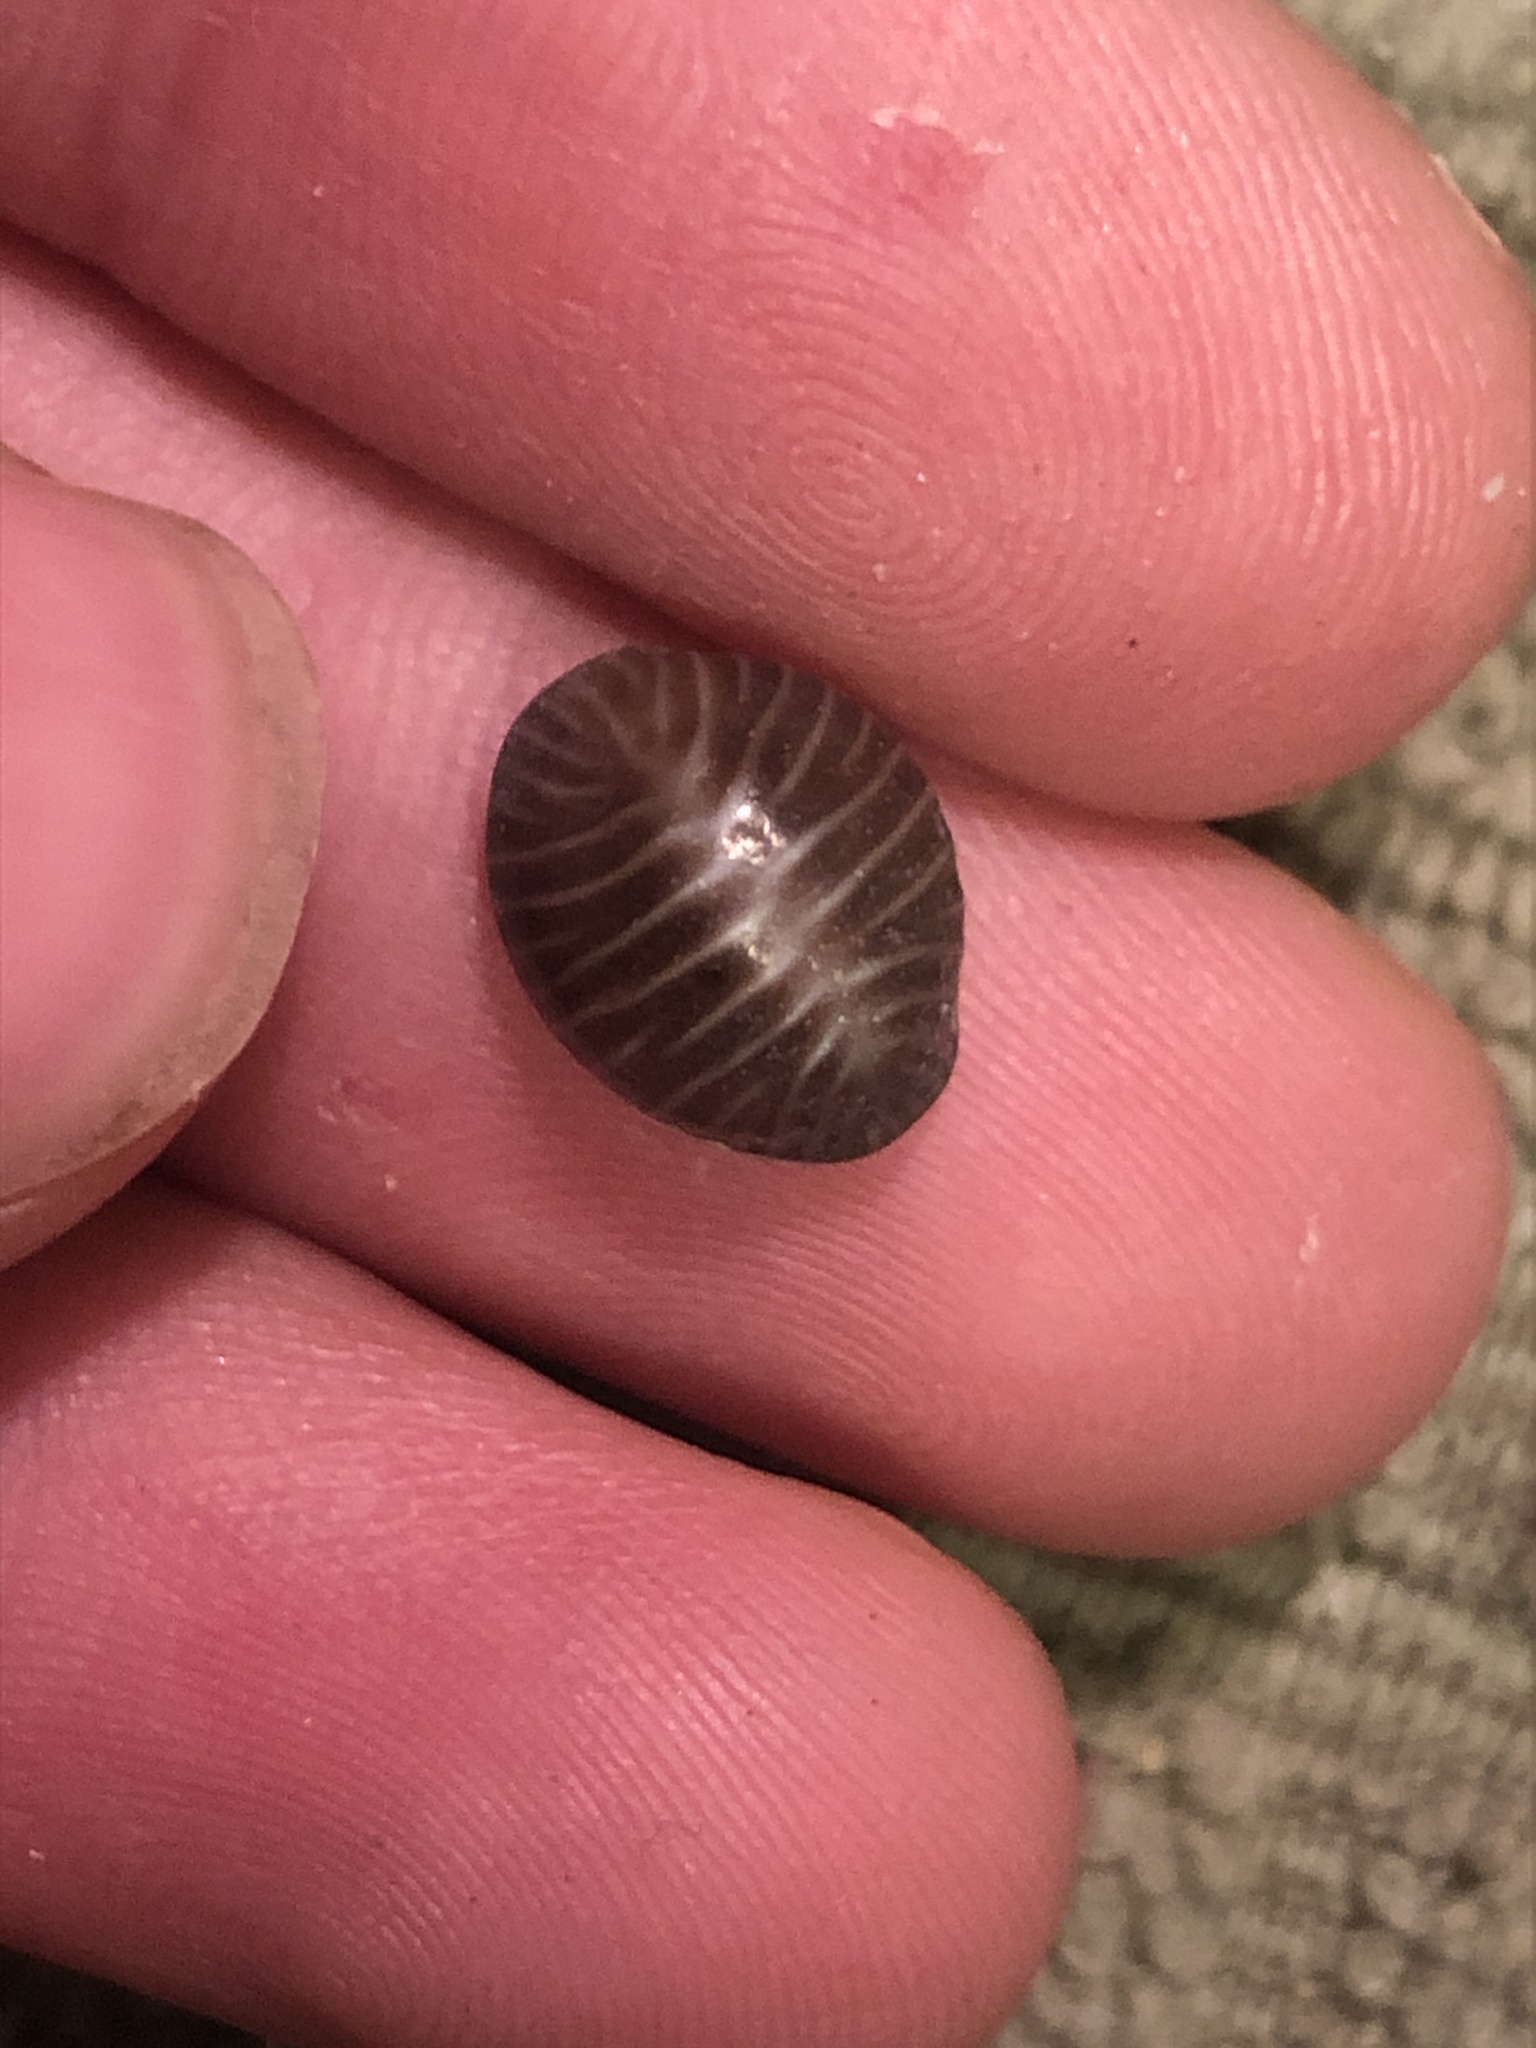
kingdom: Animalia
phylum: Mollusca
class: Gastropoda
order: Littorinimorpha
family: Triviidae
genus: Pseudopusula
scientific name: Pseudopusula californiana
